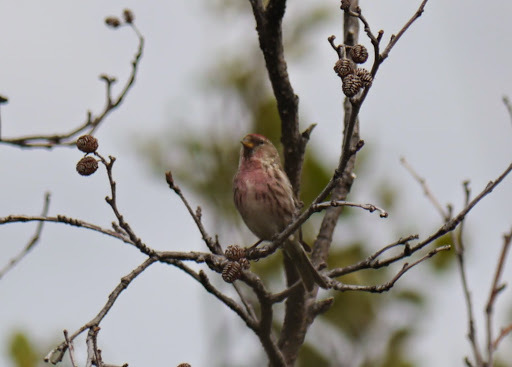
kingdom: Animalia
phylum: Chordata
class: Aves
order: Passeriformes
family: Fringillidae
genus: Acanthis
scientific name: Acanthis flammea
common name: Common redpoll
